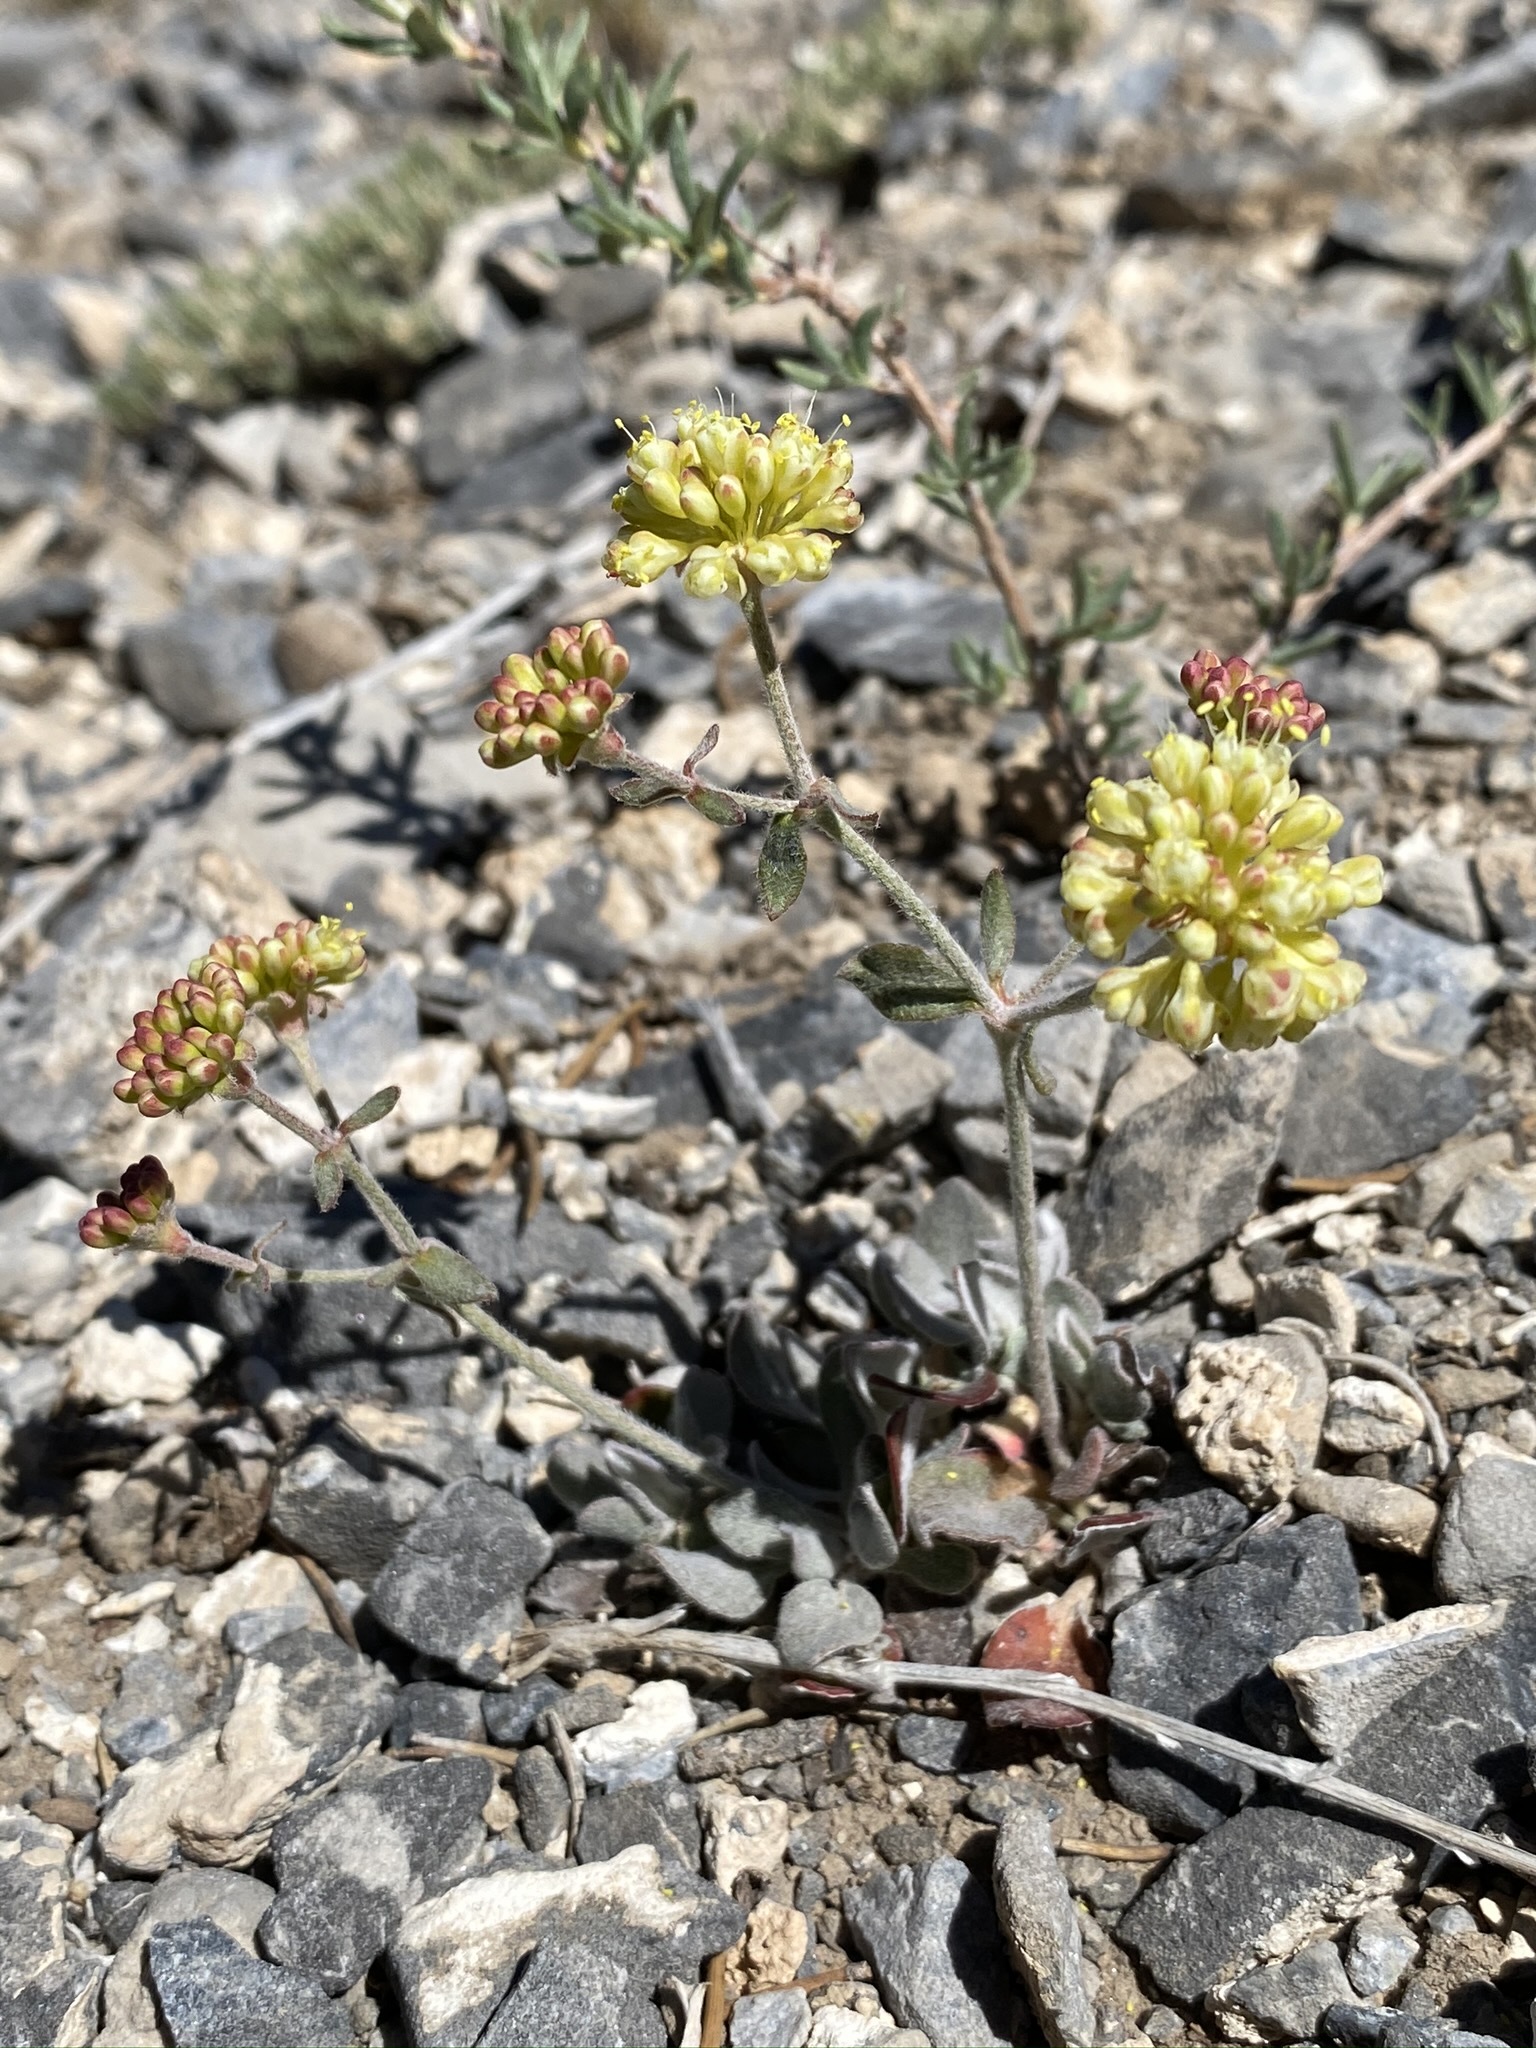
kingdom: Plantae
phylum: Tracheophyta
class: Magnoliopsida
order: Caryophyllales
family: Polygonaceae
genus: Eriogonum
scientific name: Eriogonum umbellatum
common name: Sulfur-buckwheat
